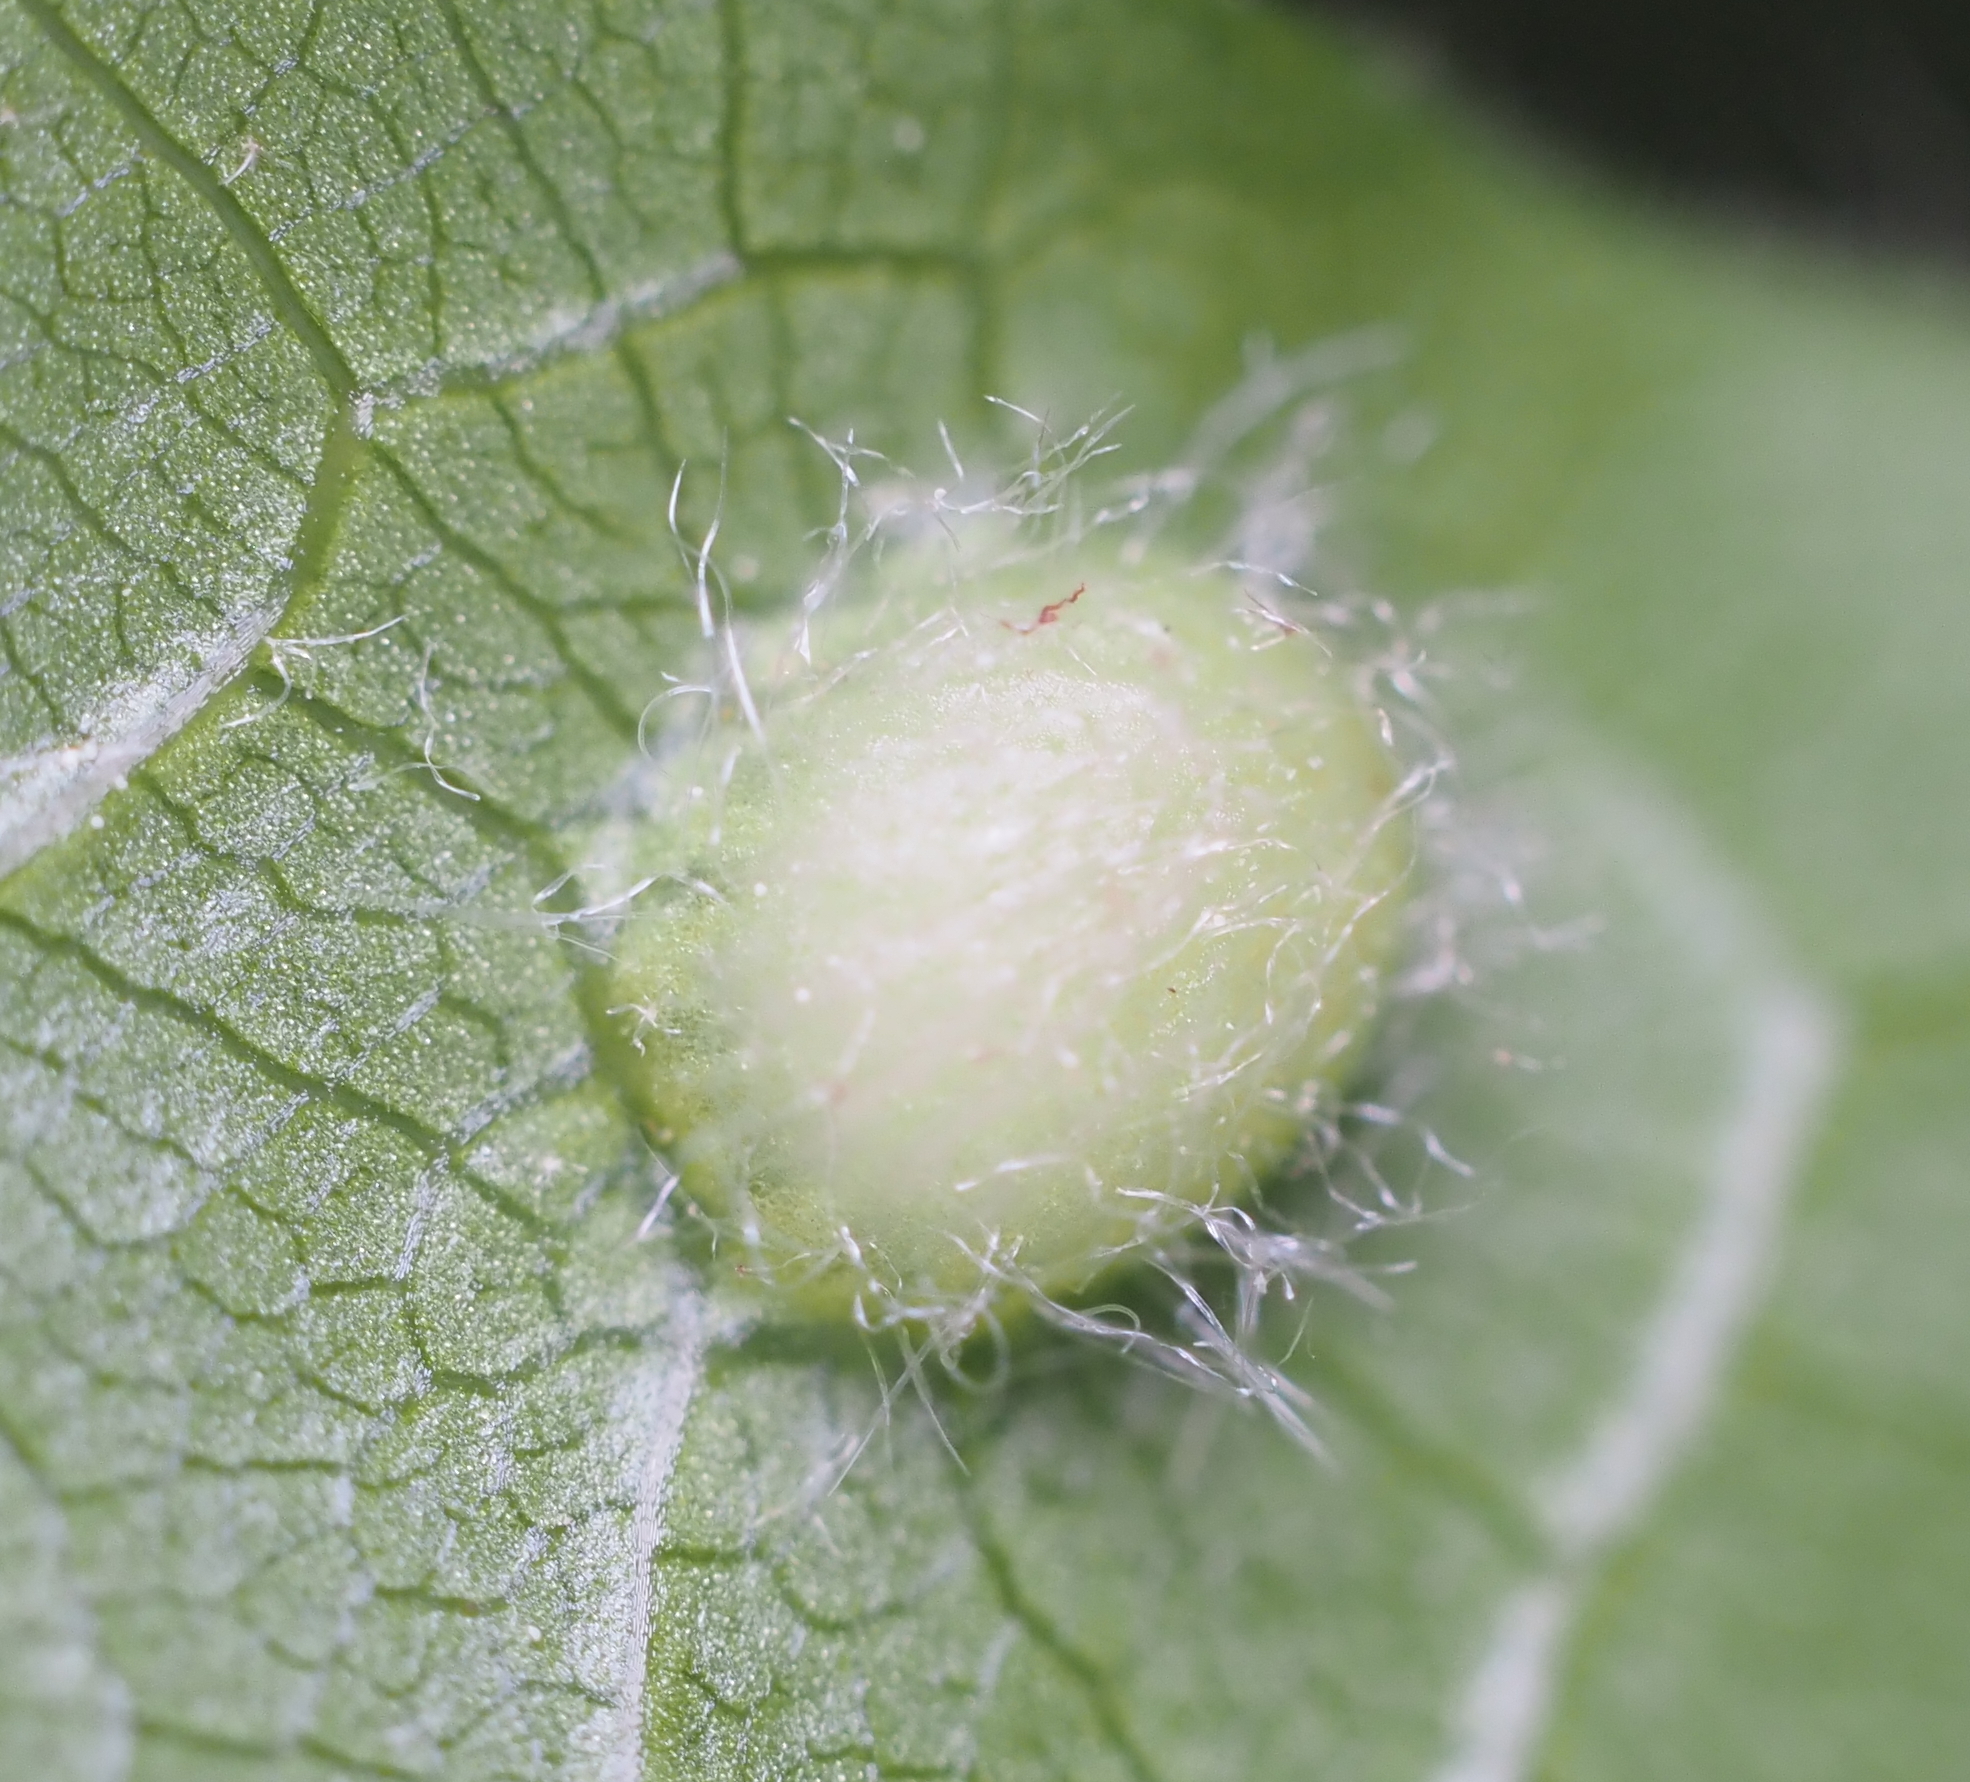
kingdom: Animalia
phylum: Arthropoda
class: Insecta
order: Hymenoptera
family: Cynipidae
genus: Dryocosmus
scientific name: Dryocosmus
